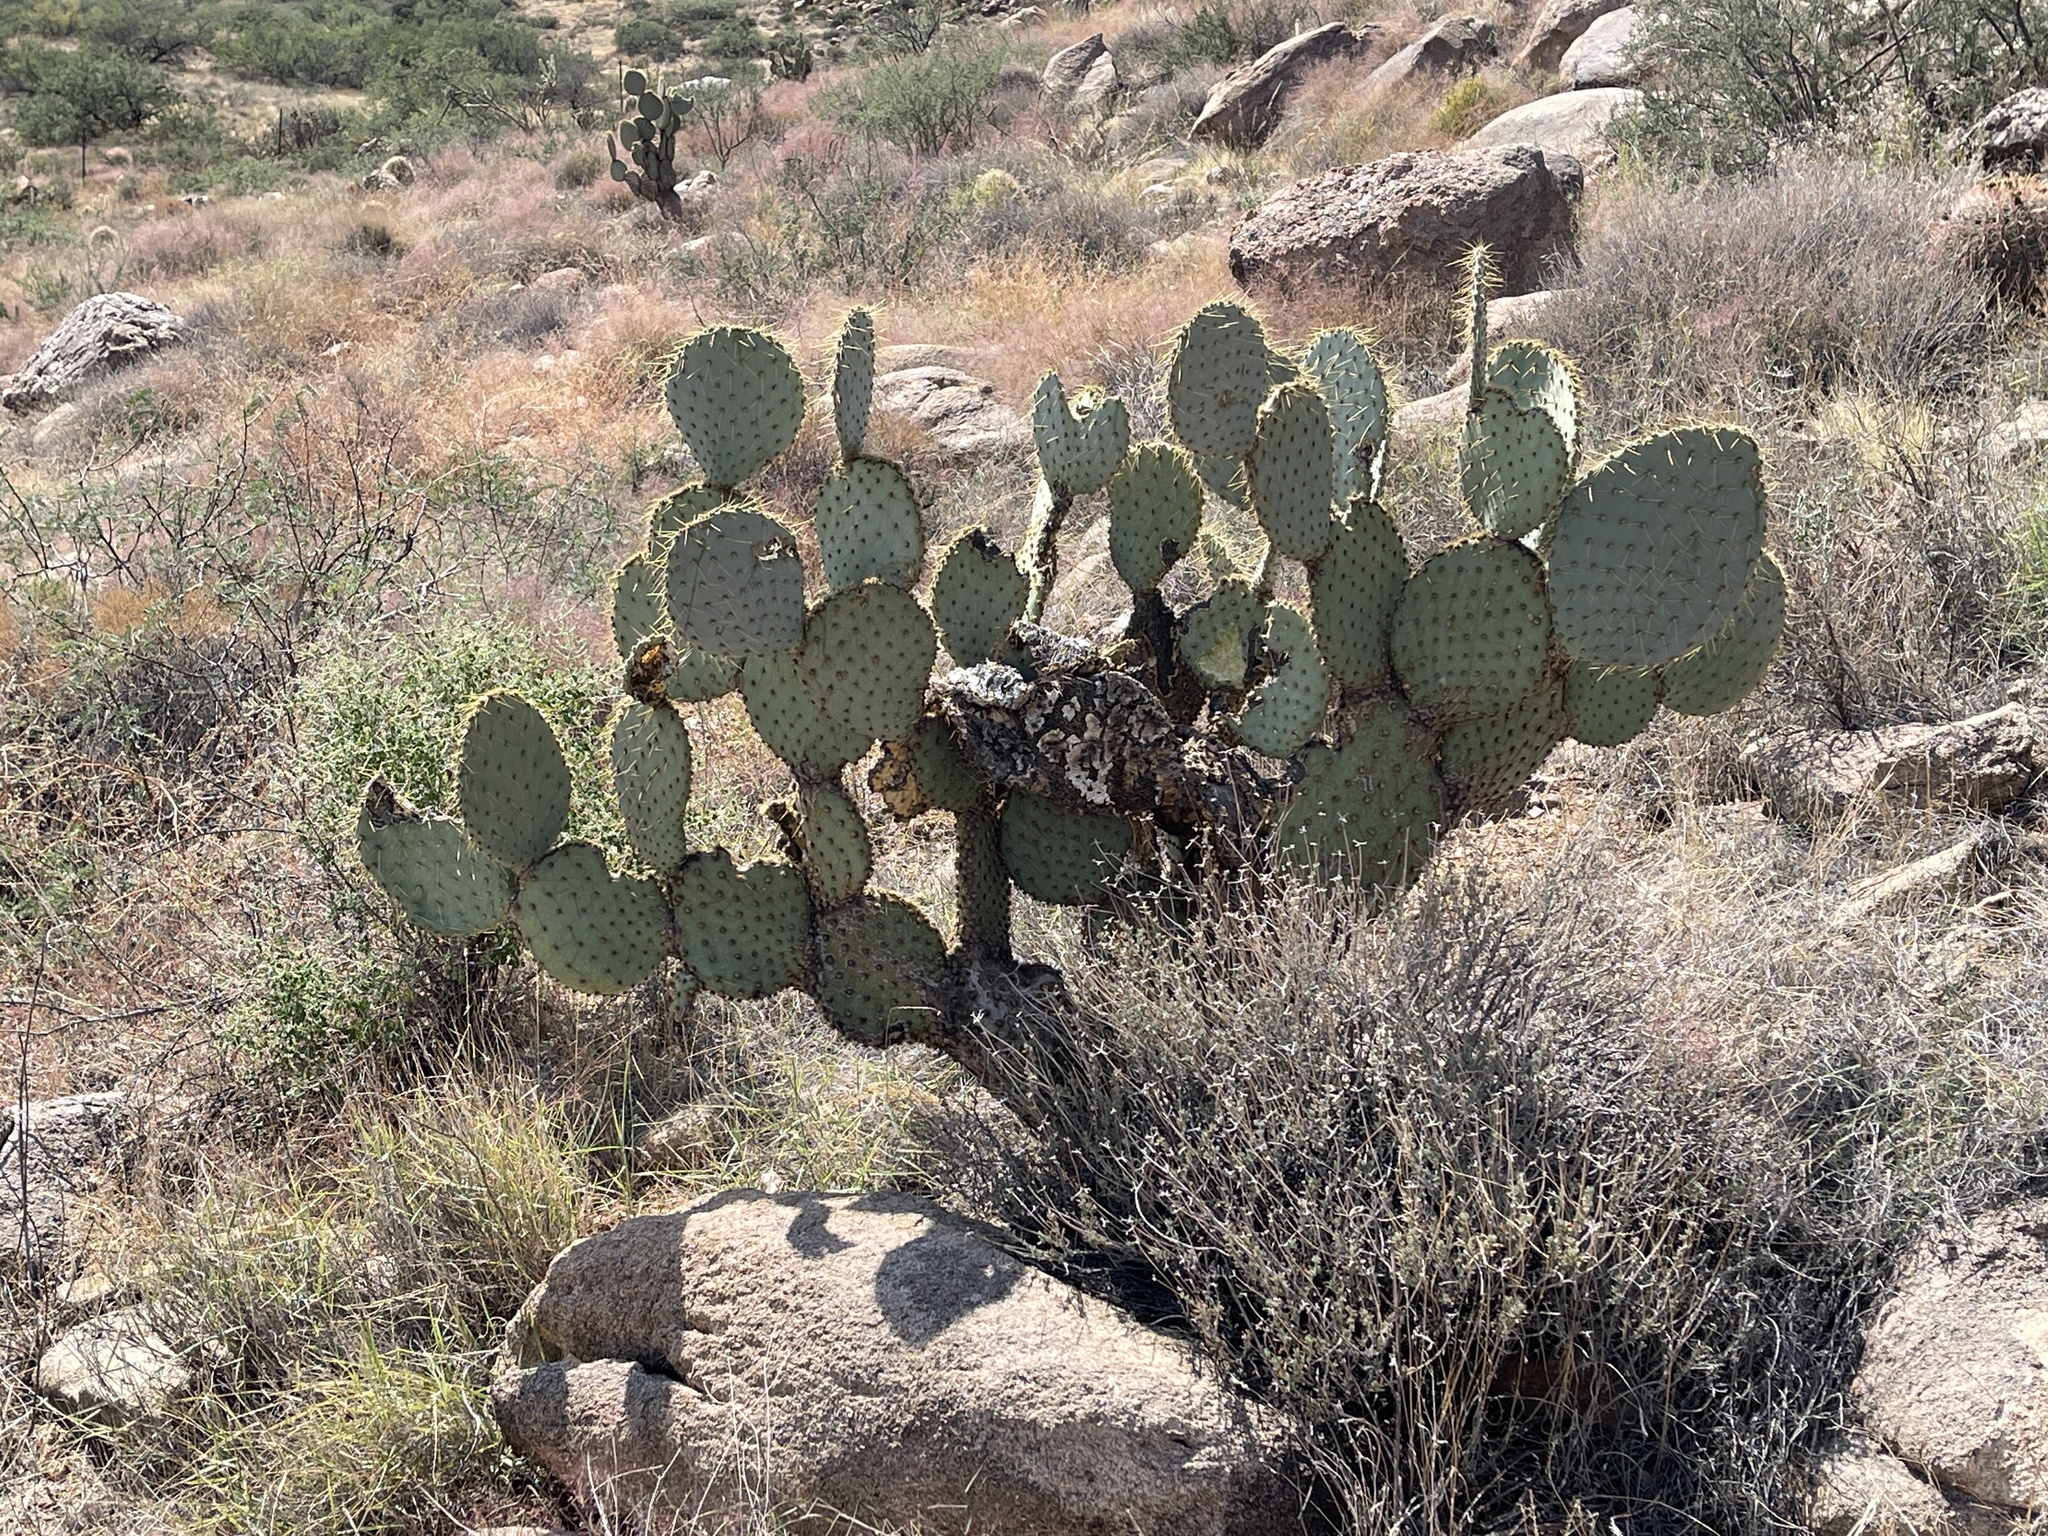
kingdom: Plantae
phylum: Tracheophyta
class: Magnoliopsida
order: Caryophyllales
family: Cactaceae
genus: Opuntia
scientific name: Opuntia chlorotica
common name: Dollar-joint prickly-pear
